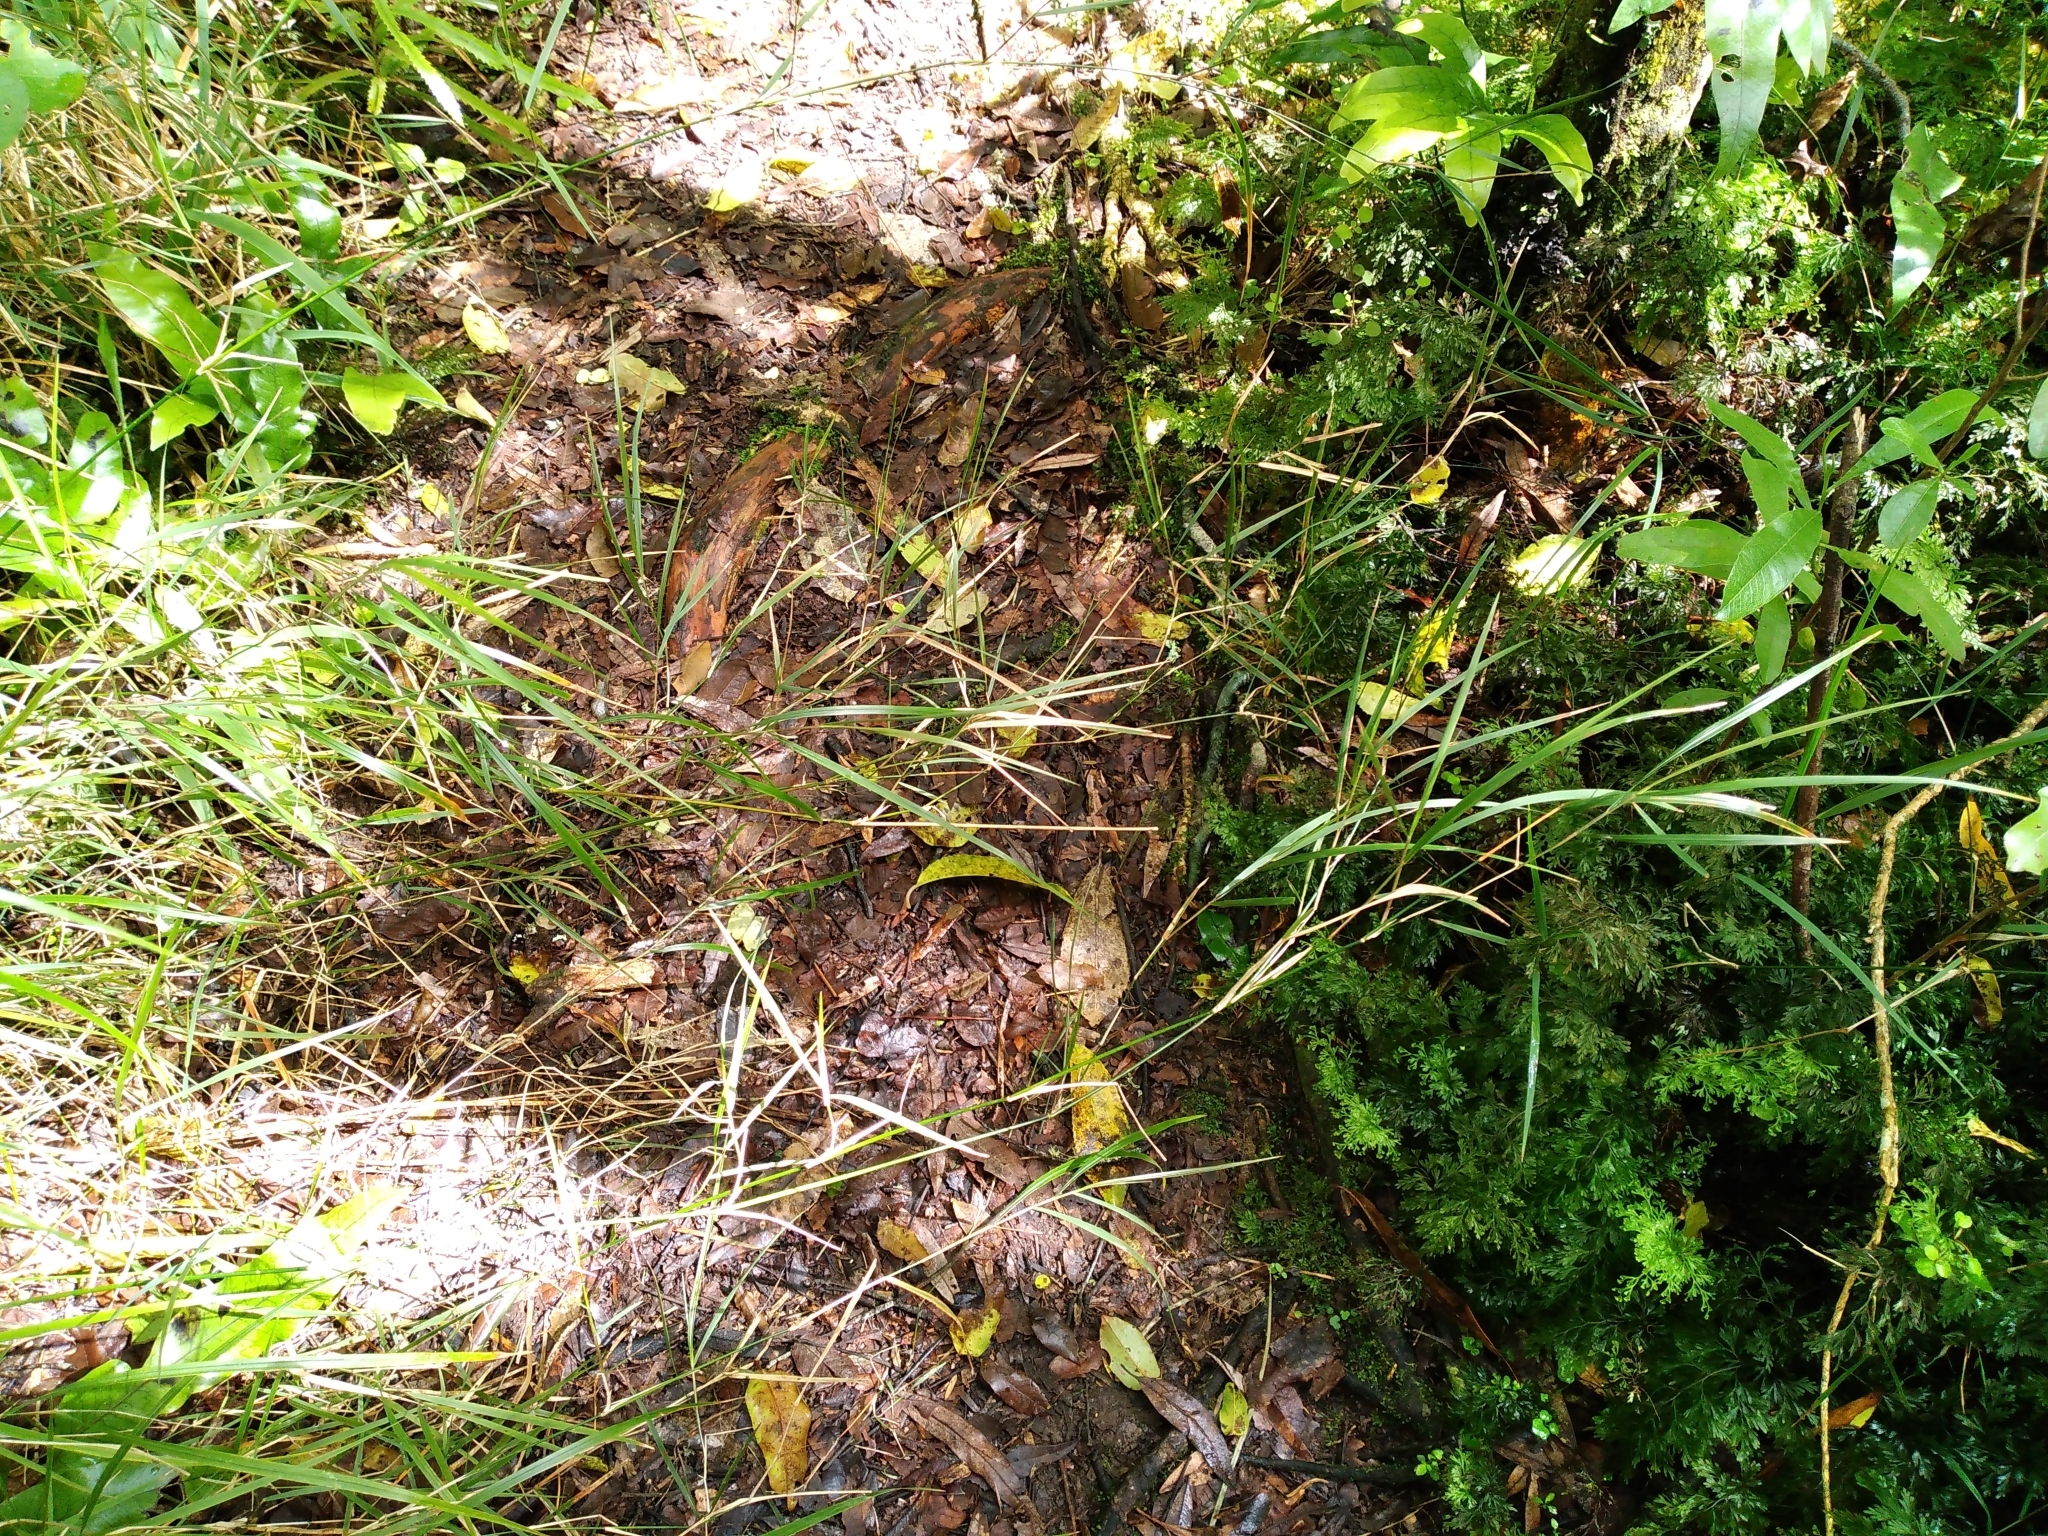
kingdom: Plantae
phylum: Tracheophyta
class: Liliopsida
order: Poales
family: Poaceae
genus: Microlaena
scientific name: Microlaena polynoda
